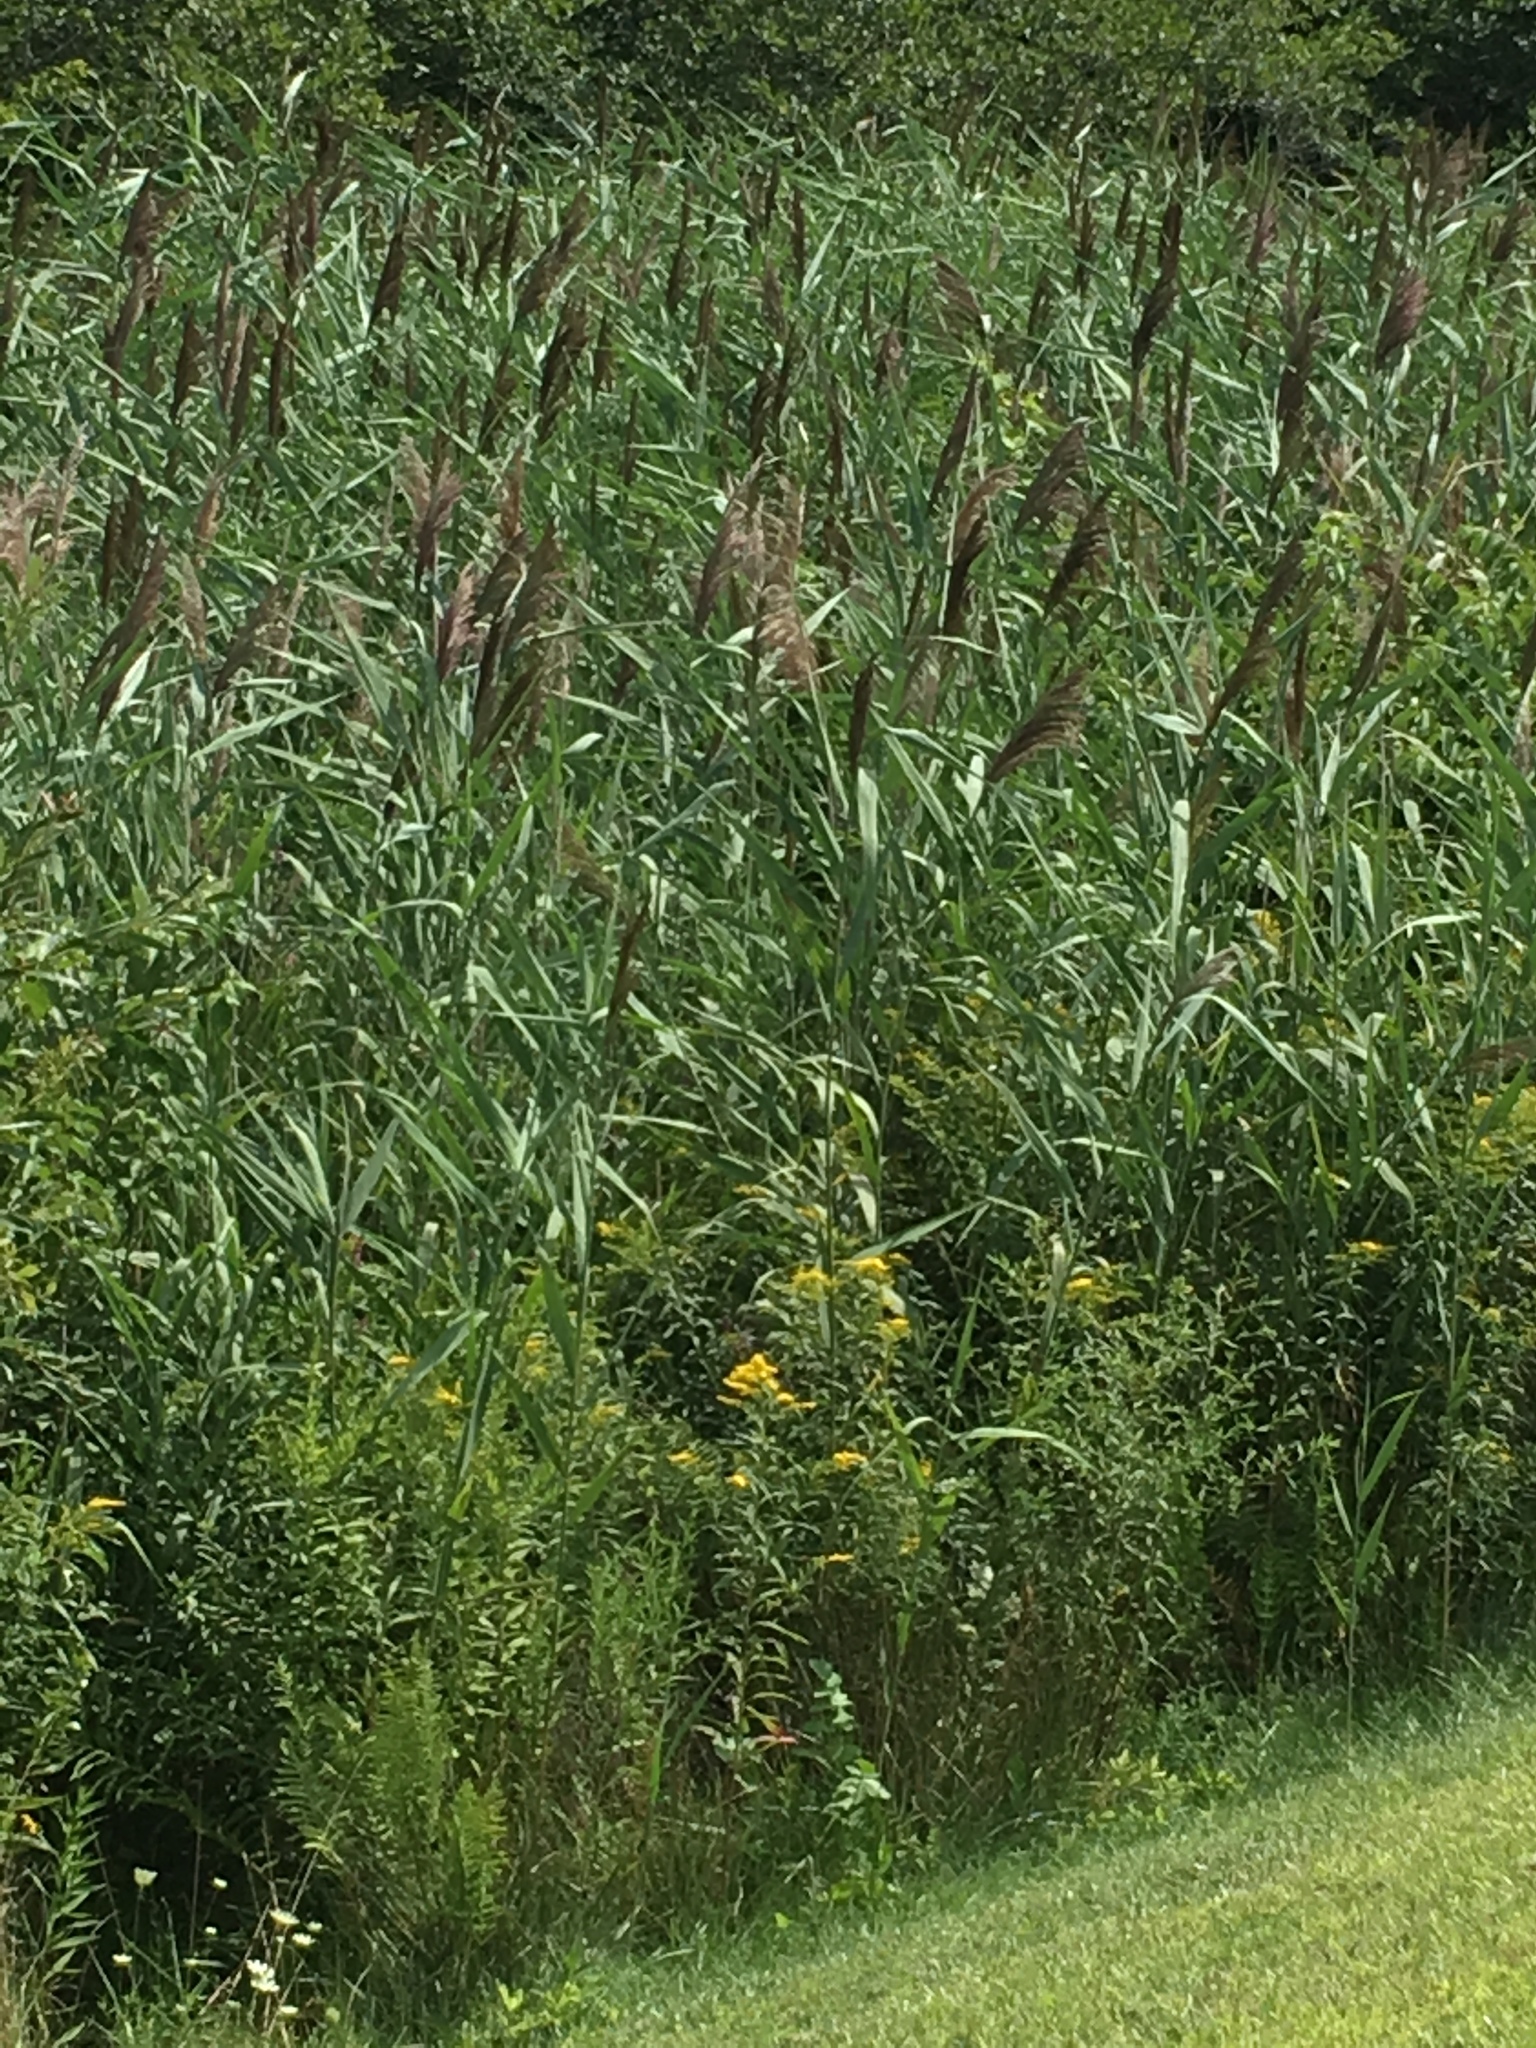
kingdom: Plantae
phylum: Tracheophyta
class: Liliopsida
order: Poales
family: Poaceae
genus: Phragmites
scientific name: Phragmites australis
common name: Common reed
